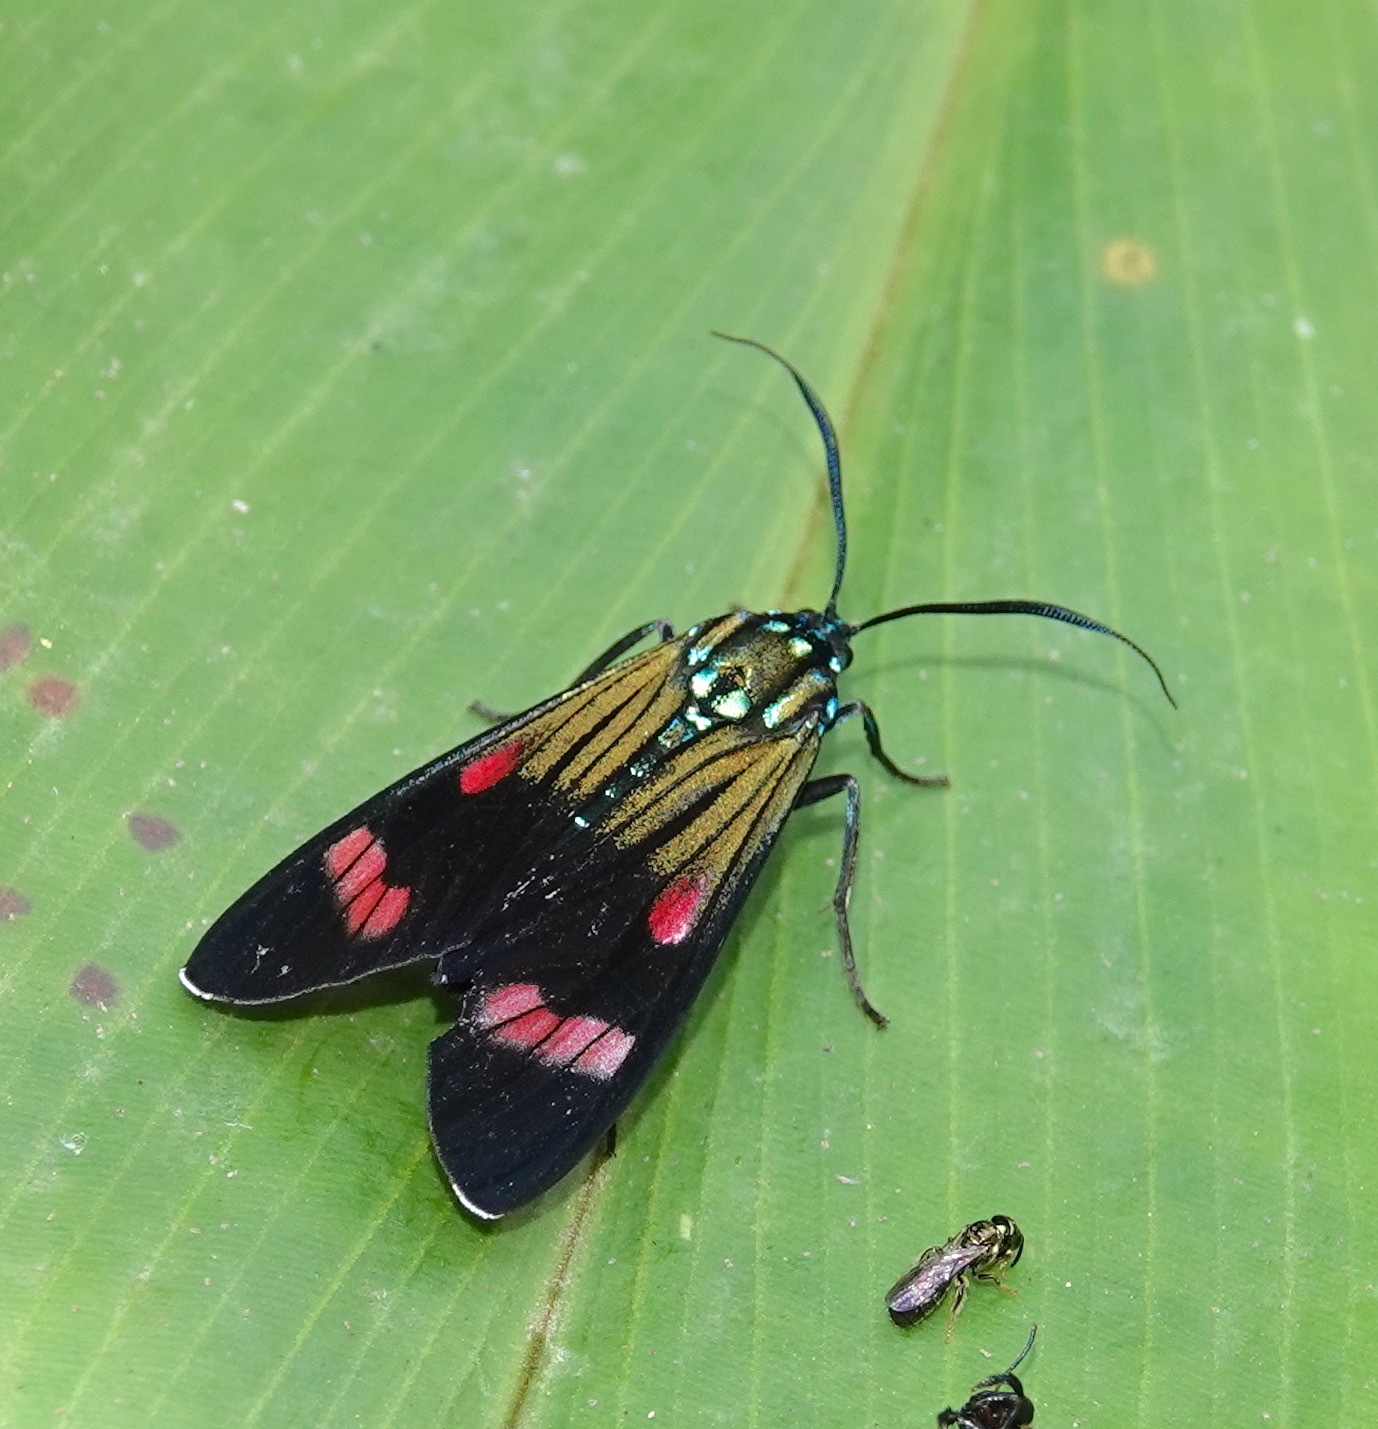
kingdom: Animalia
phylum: Arthropoda
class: Insecta
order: Lepidoptera
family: Erebidae
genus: Diospage
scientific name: Diospage splendens
